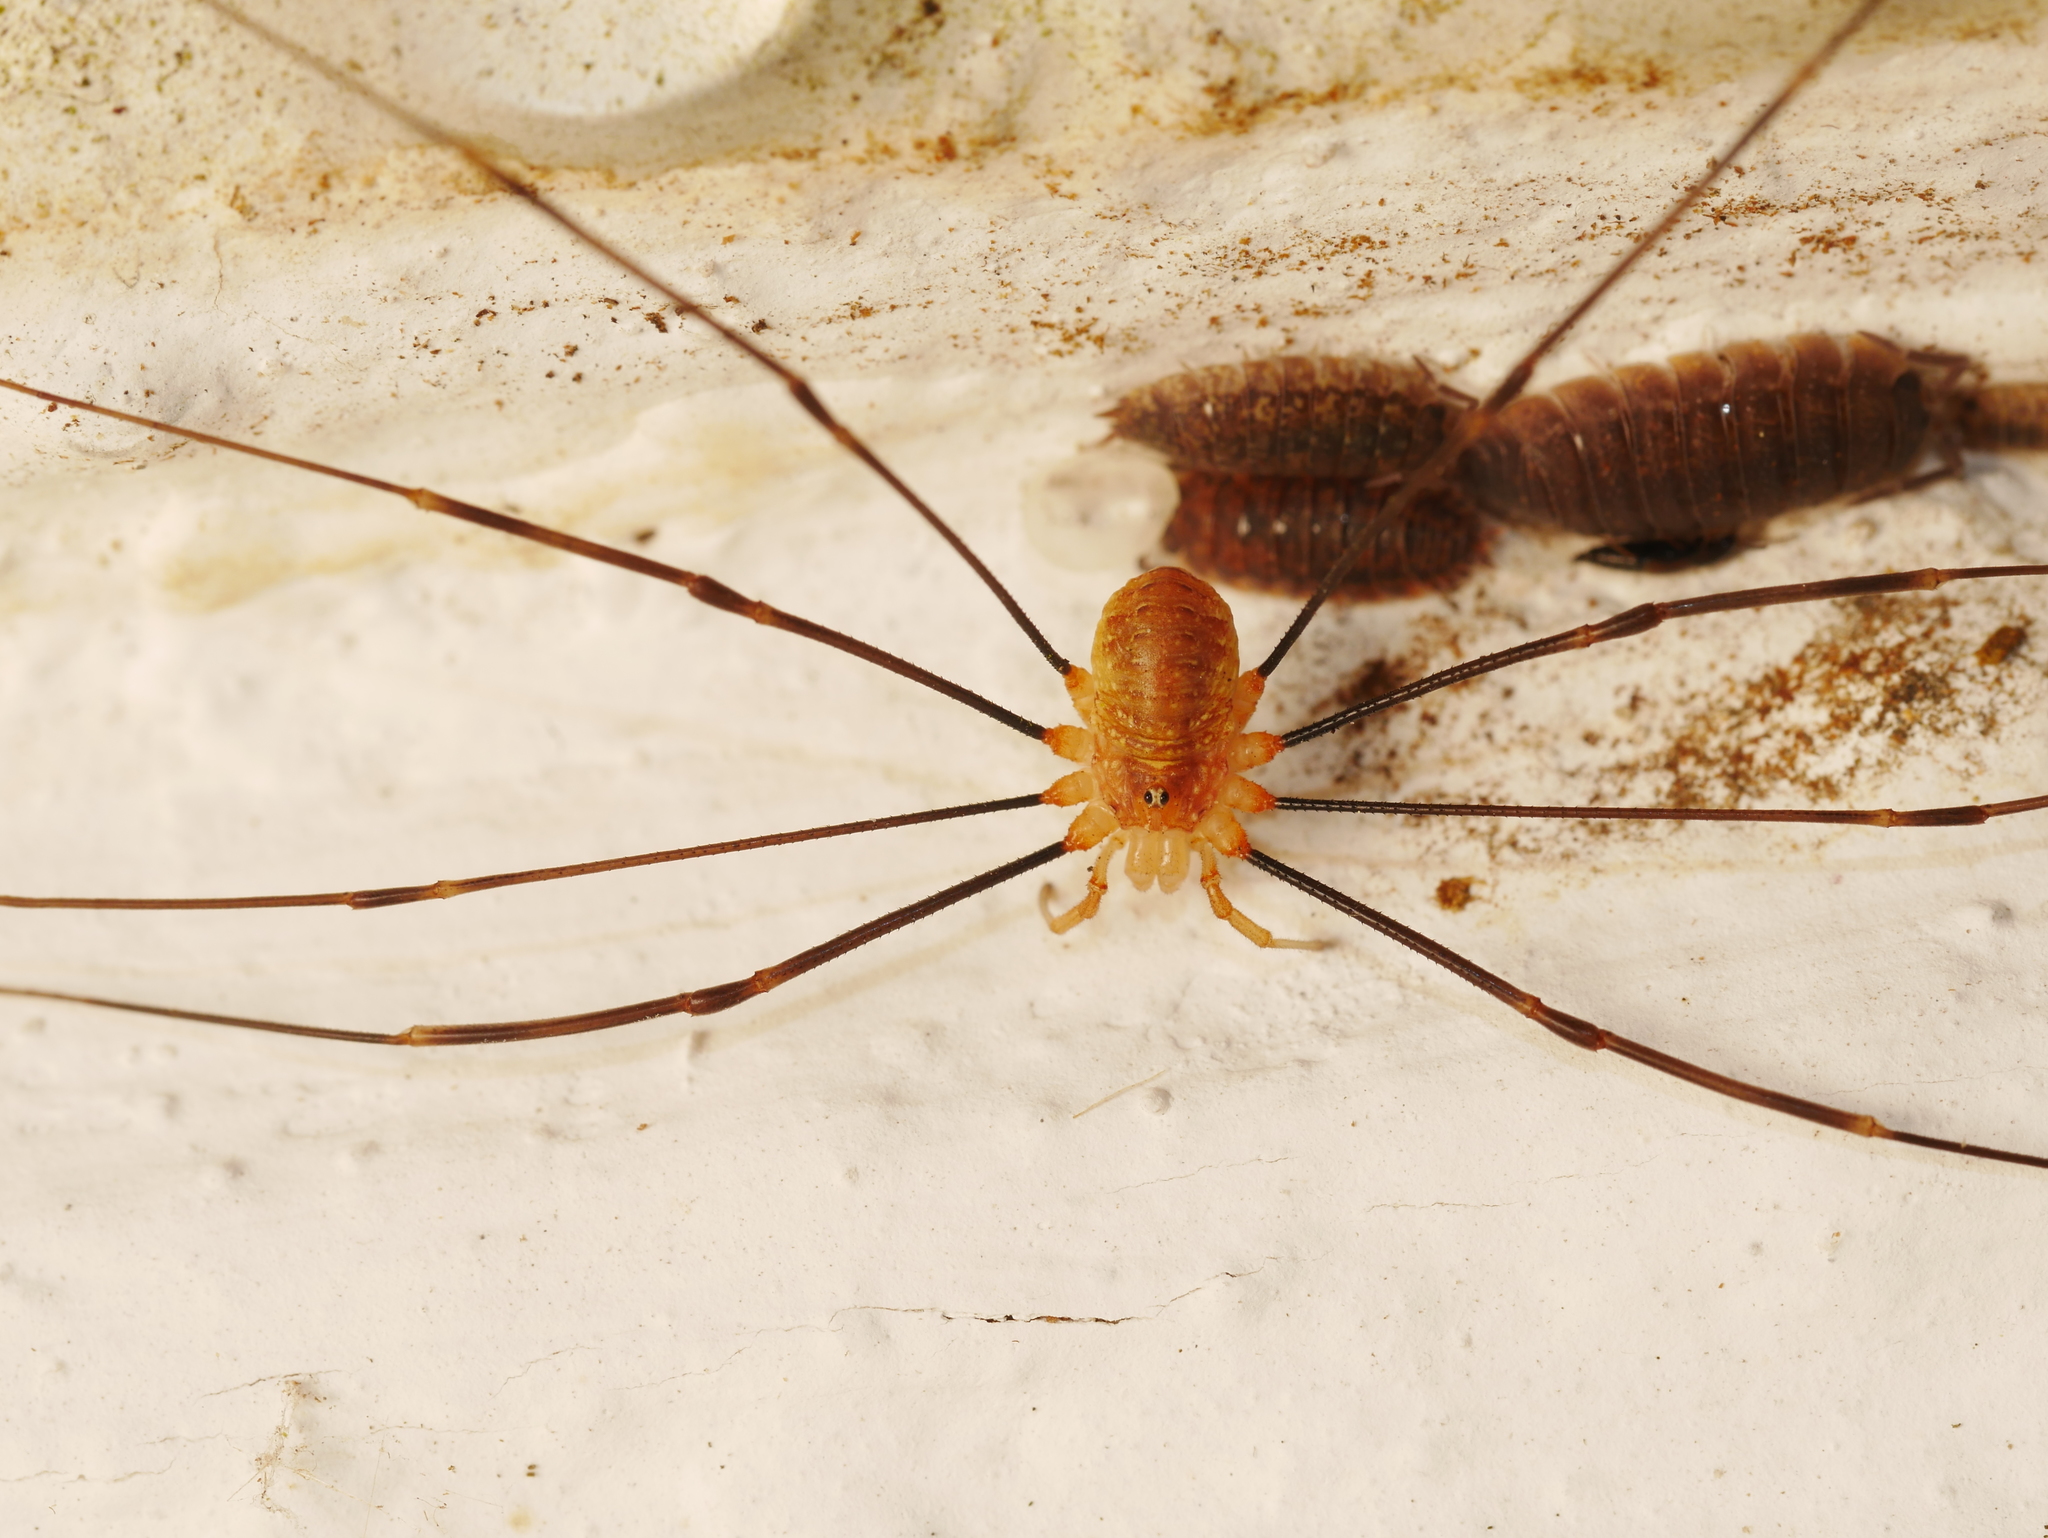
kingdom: Animalia
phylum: Arthropoda
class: Arachnida
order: Opiliones
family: Phalangiidae
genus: Opilio
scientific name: Opilio canestrinii
